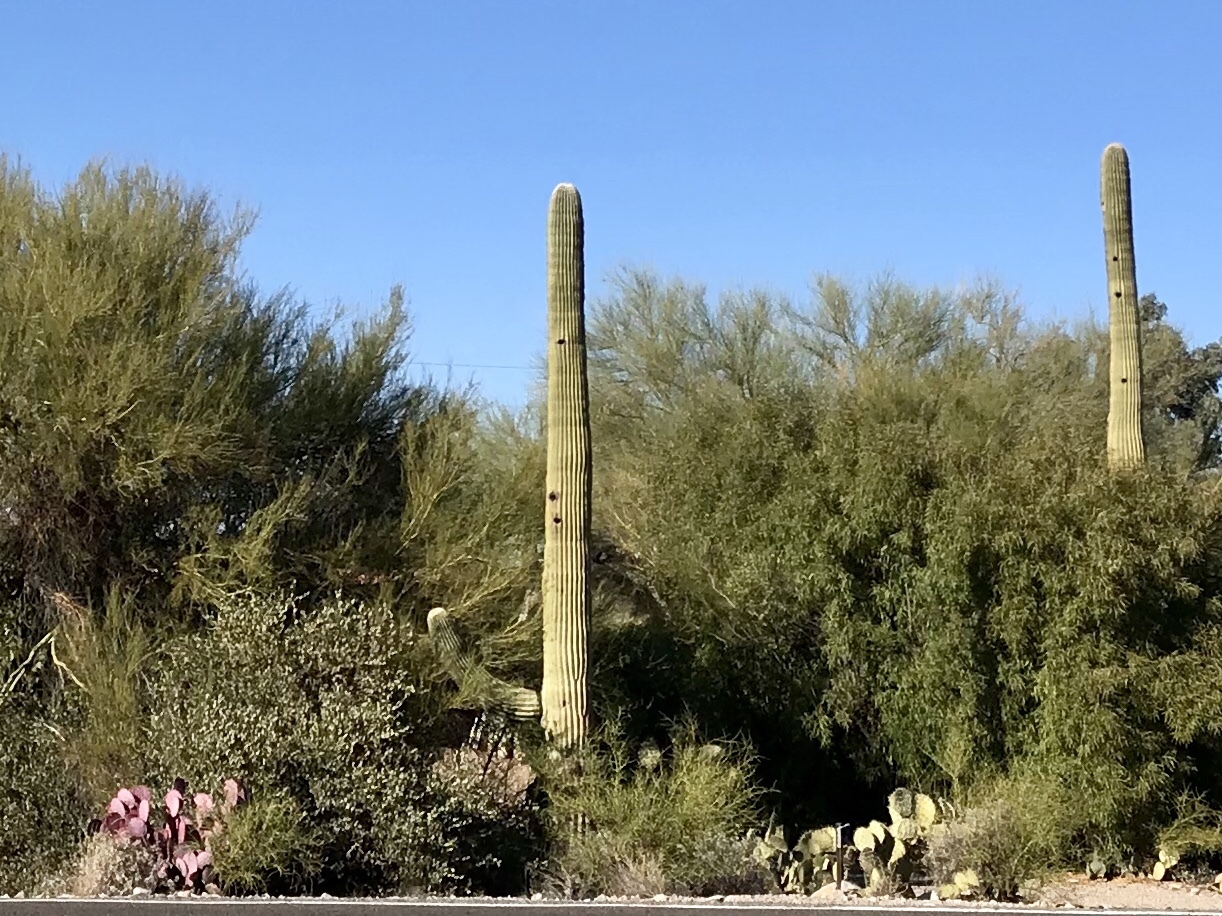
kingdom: Plantae
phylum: Tracheophyta
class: Magnoliopsida
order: Caryophyllales
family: Cactaceae
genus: Carnegiea
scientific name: Carnegiea gigantea
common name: Saguaro
